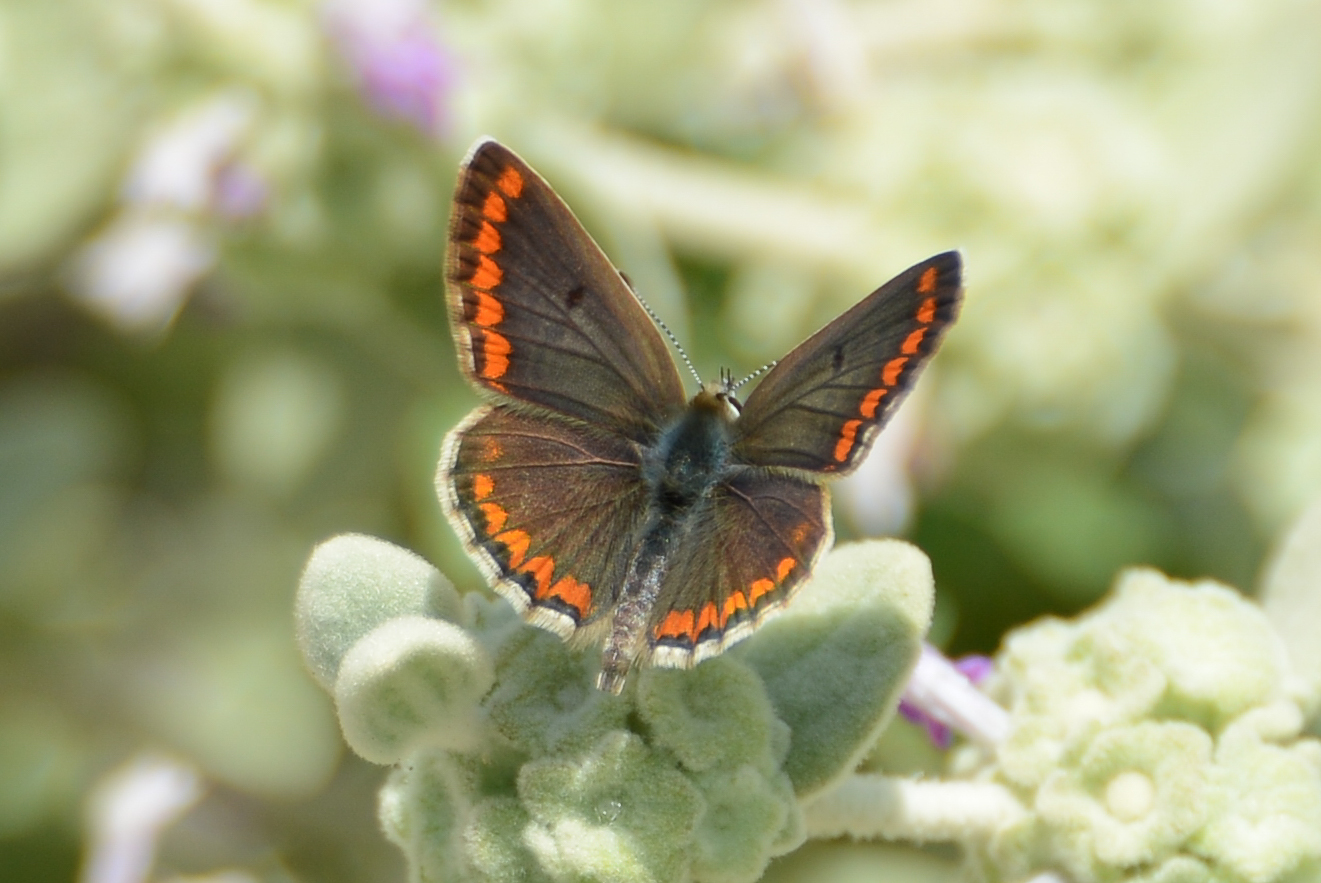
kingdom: Animalia
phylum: Arthropoda
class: Insecta
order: Lepidoptera
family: Lycaenidae
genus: Aricia
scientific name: Aricia agestis
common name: Brown argus
